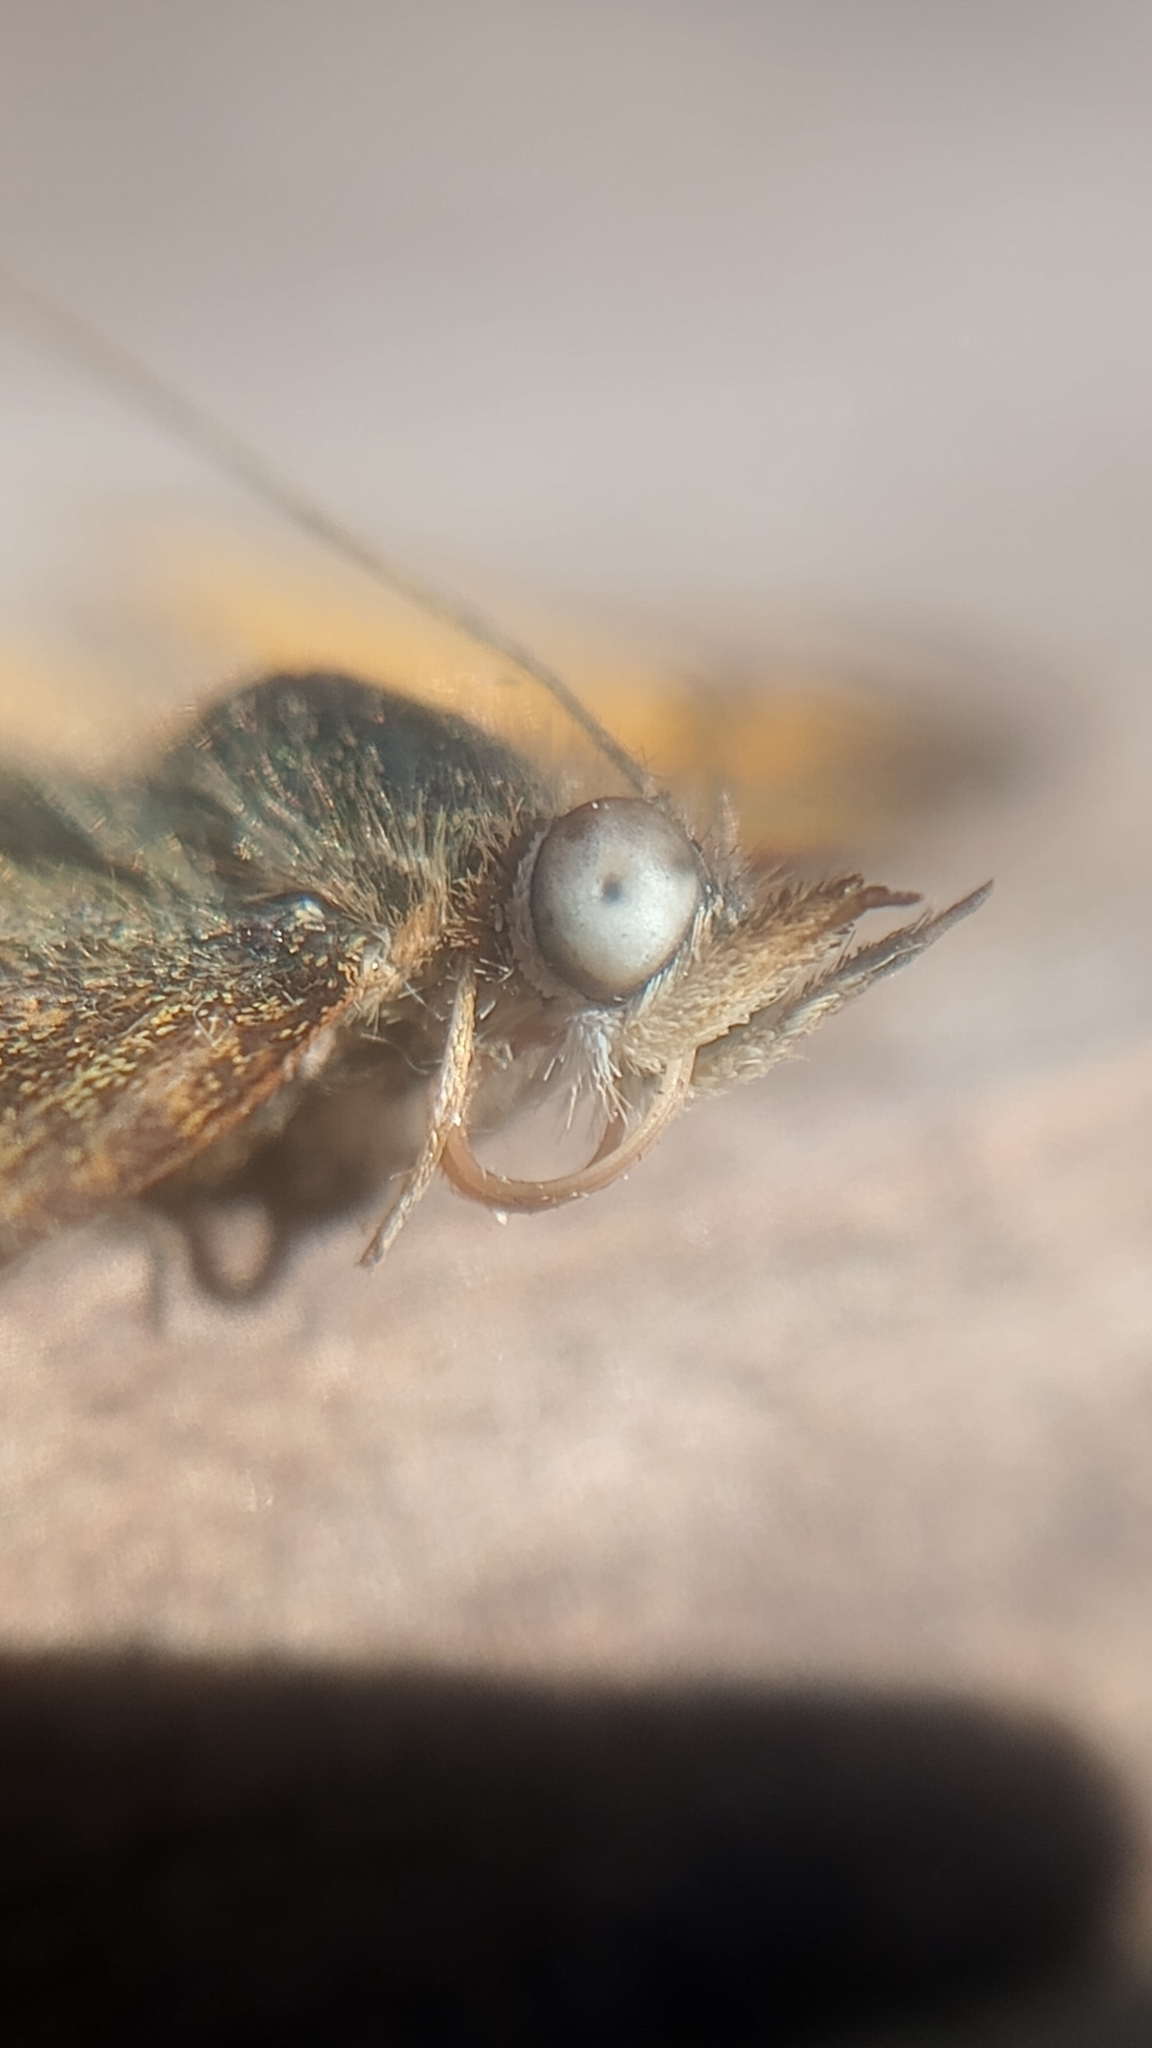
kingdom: Animalia
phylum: Arthropoda
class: Insecta
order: Lepidoptera
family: Nymphalidae
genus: Tegosa
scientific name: Tegosa claudina
